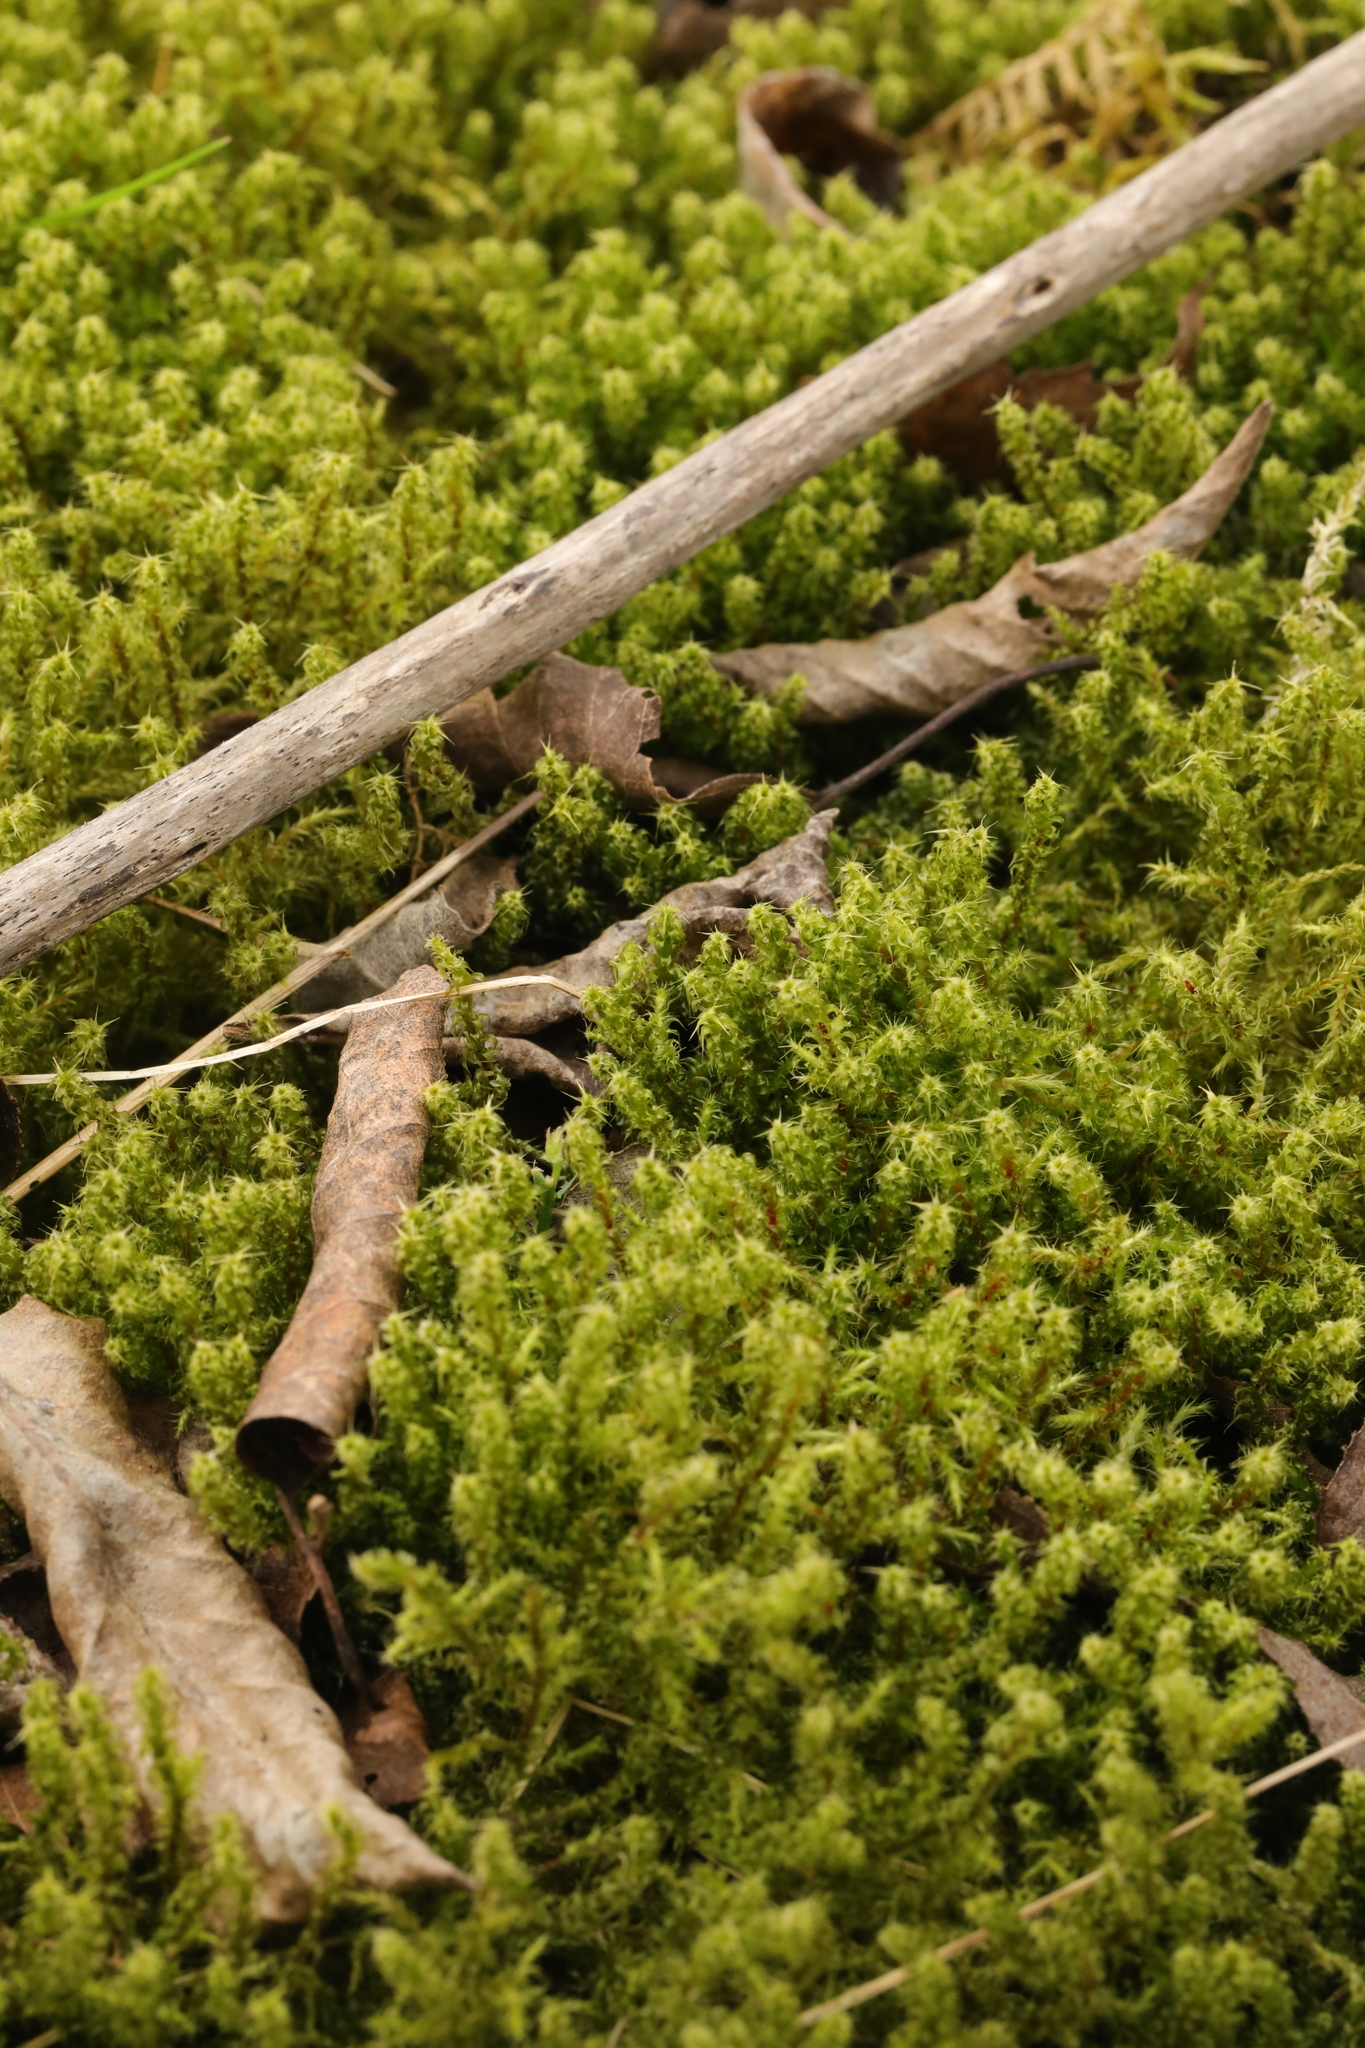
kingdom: Plantae
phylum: Bryophyta
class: Bryopsida
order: Hypnales
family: Hylocomiaceae
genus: Rhytidiadelphus
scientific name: Rhytidiadelphus squarrosus
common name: Springy turf-moss
